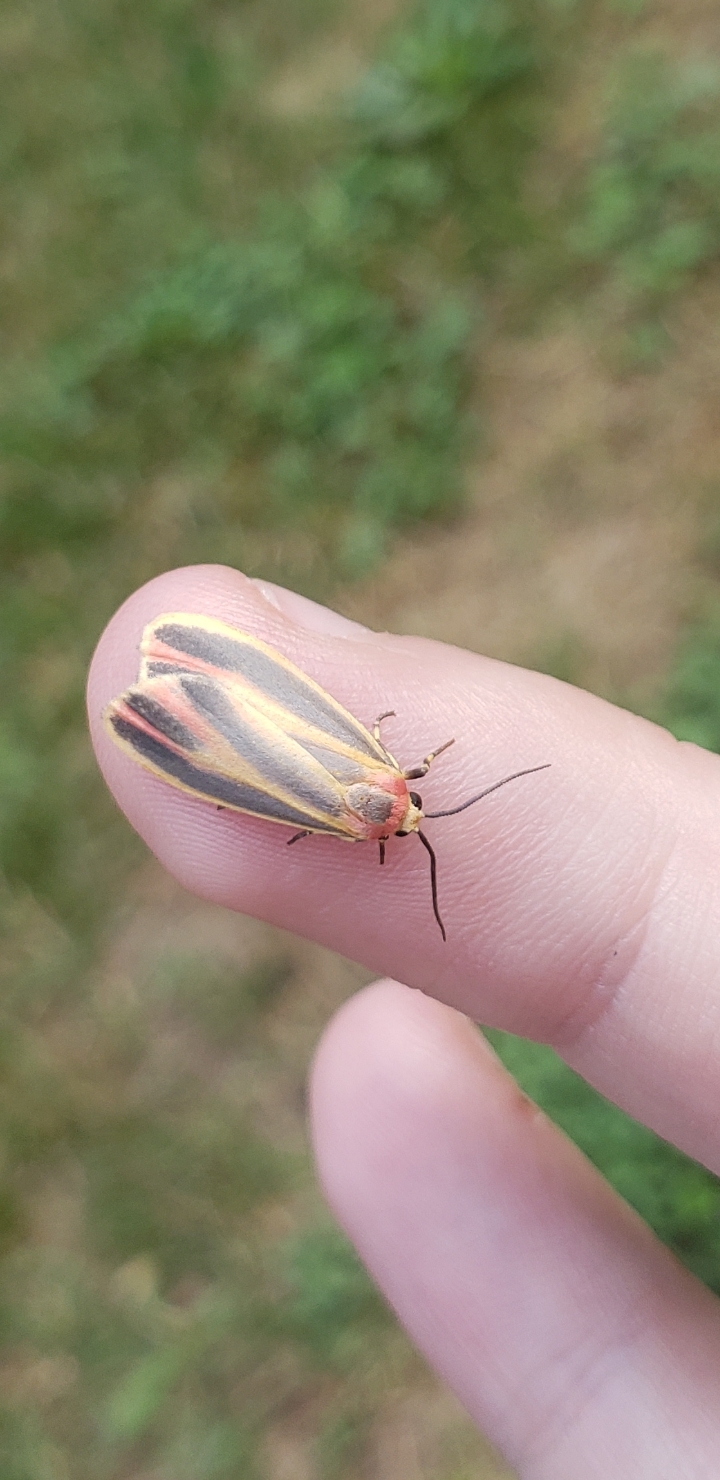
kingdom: Animalia
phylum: Arthropoda
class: Insecta
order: Lepidoptera
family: Erebidae
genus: Hypoprepia
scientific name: Hypoprepia fucosa
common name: Painted lichen moth
